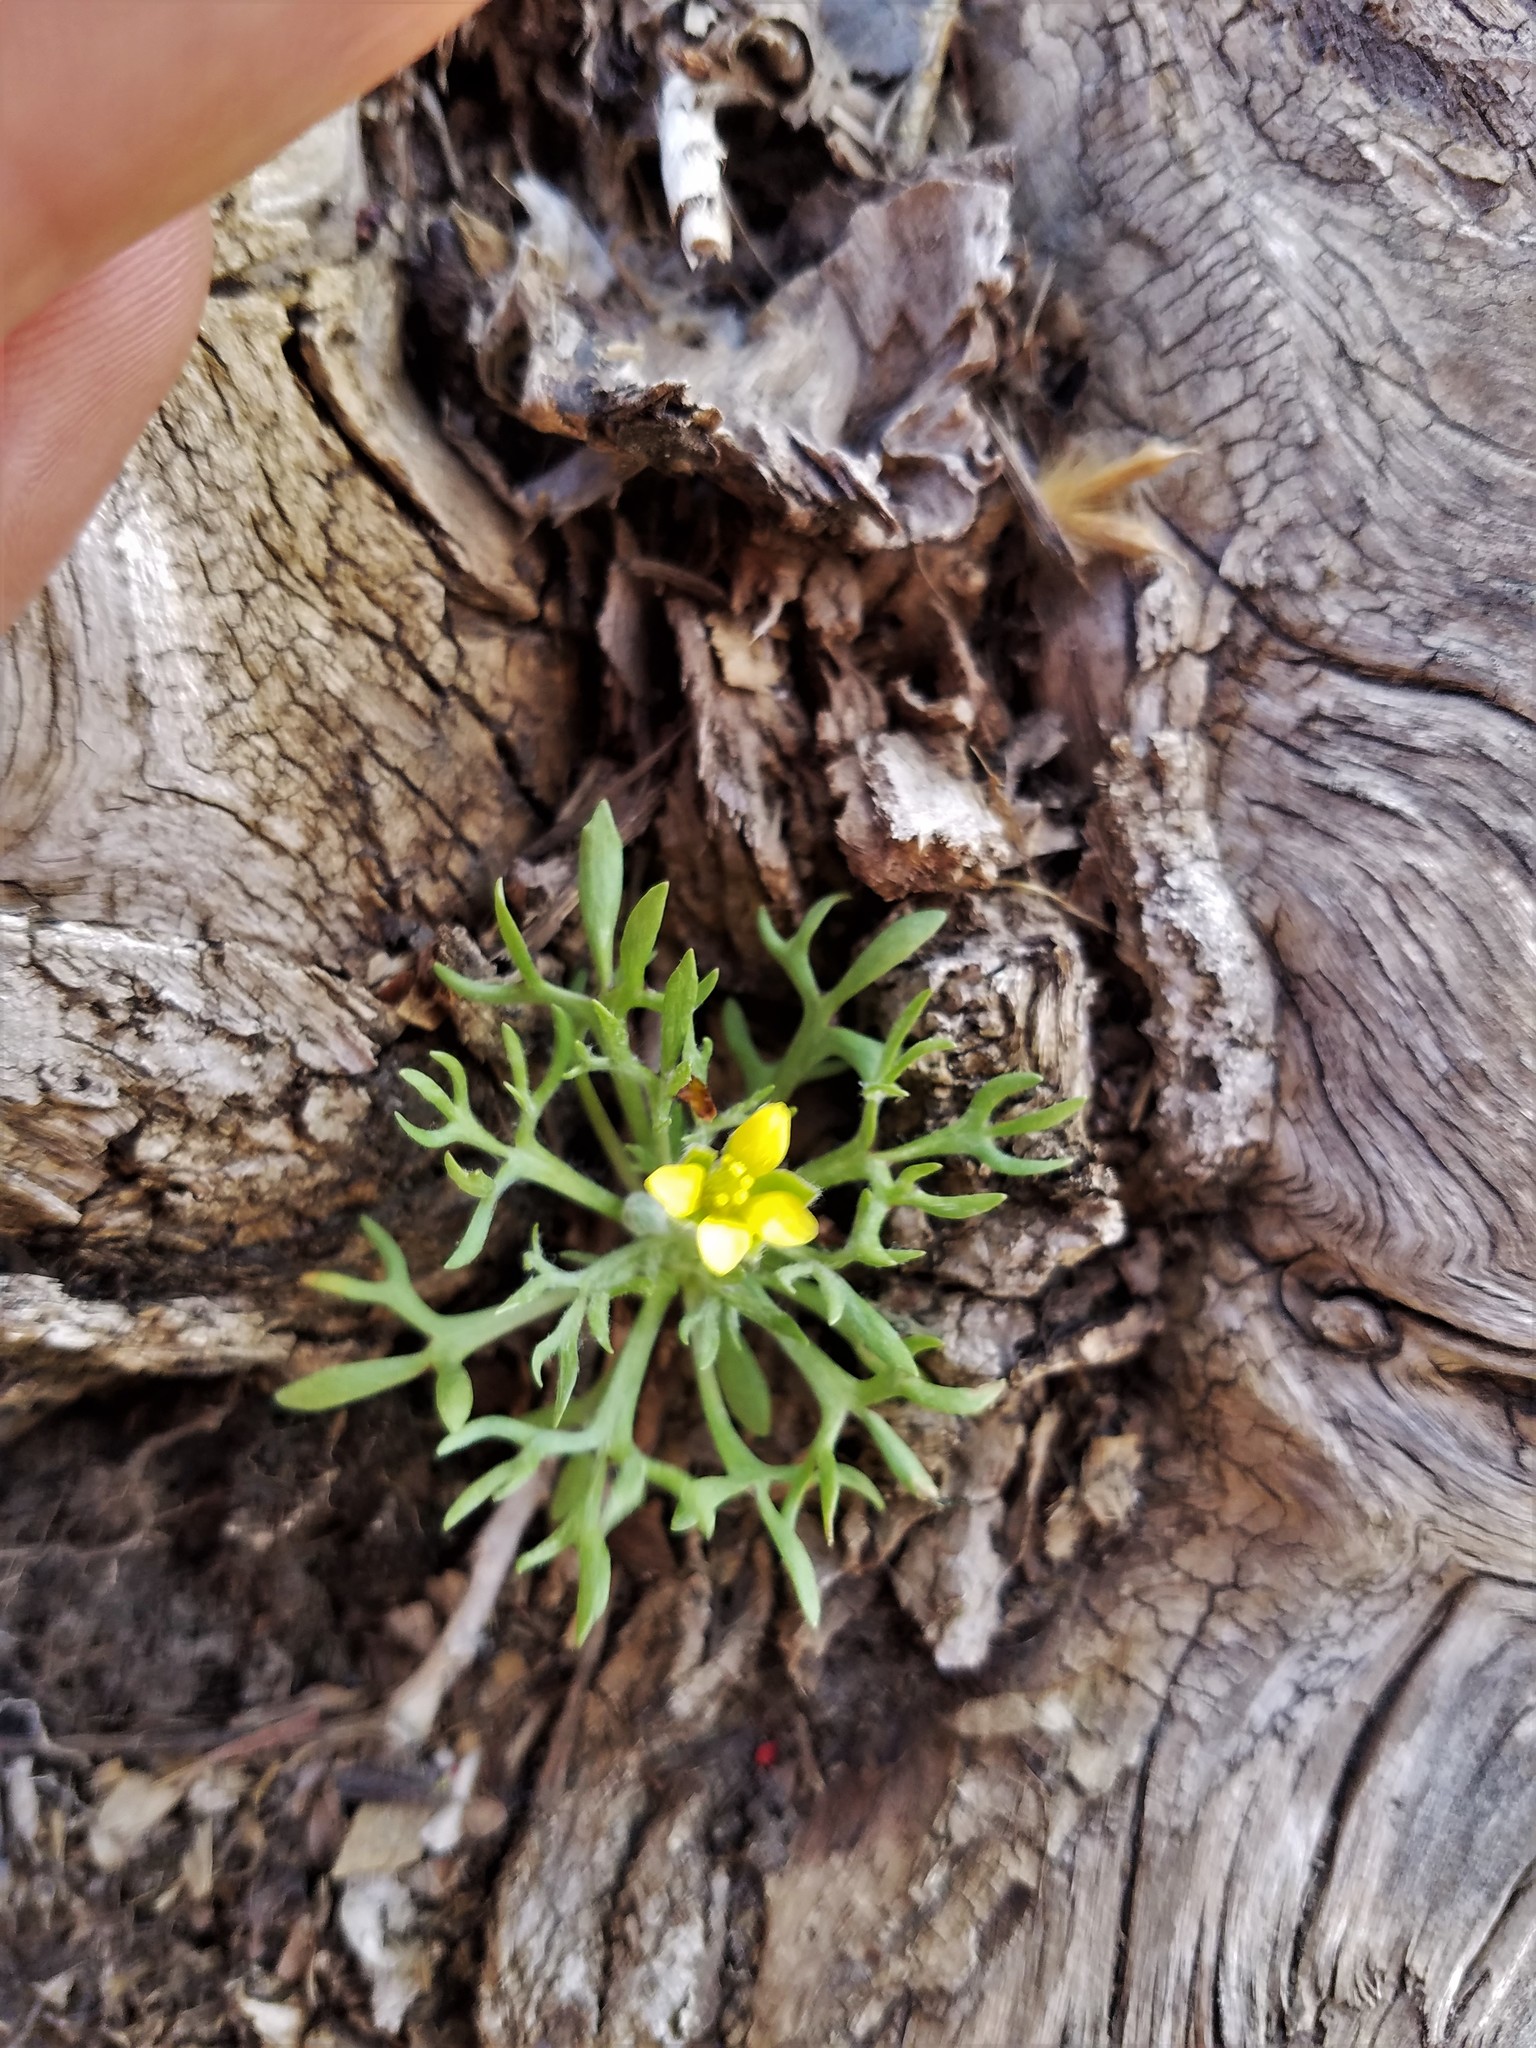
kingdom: Plantae
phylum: Tracheophyta
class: Magnoliopsida
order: Ranunculales
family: Ranunculaceae
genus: Ceratocephala
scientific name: Ceratocephala orthoceras
